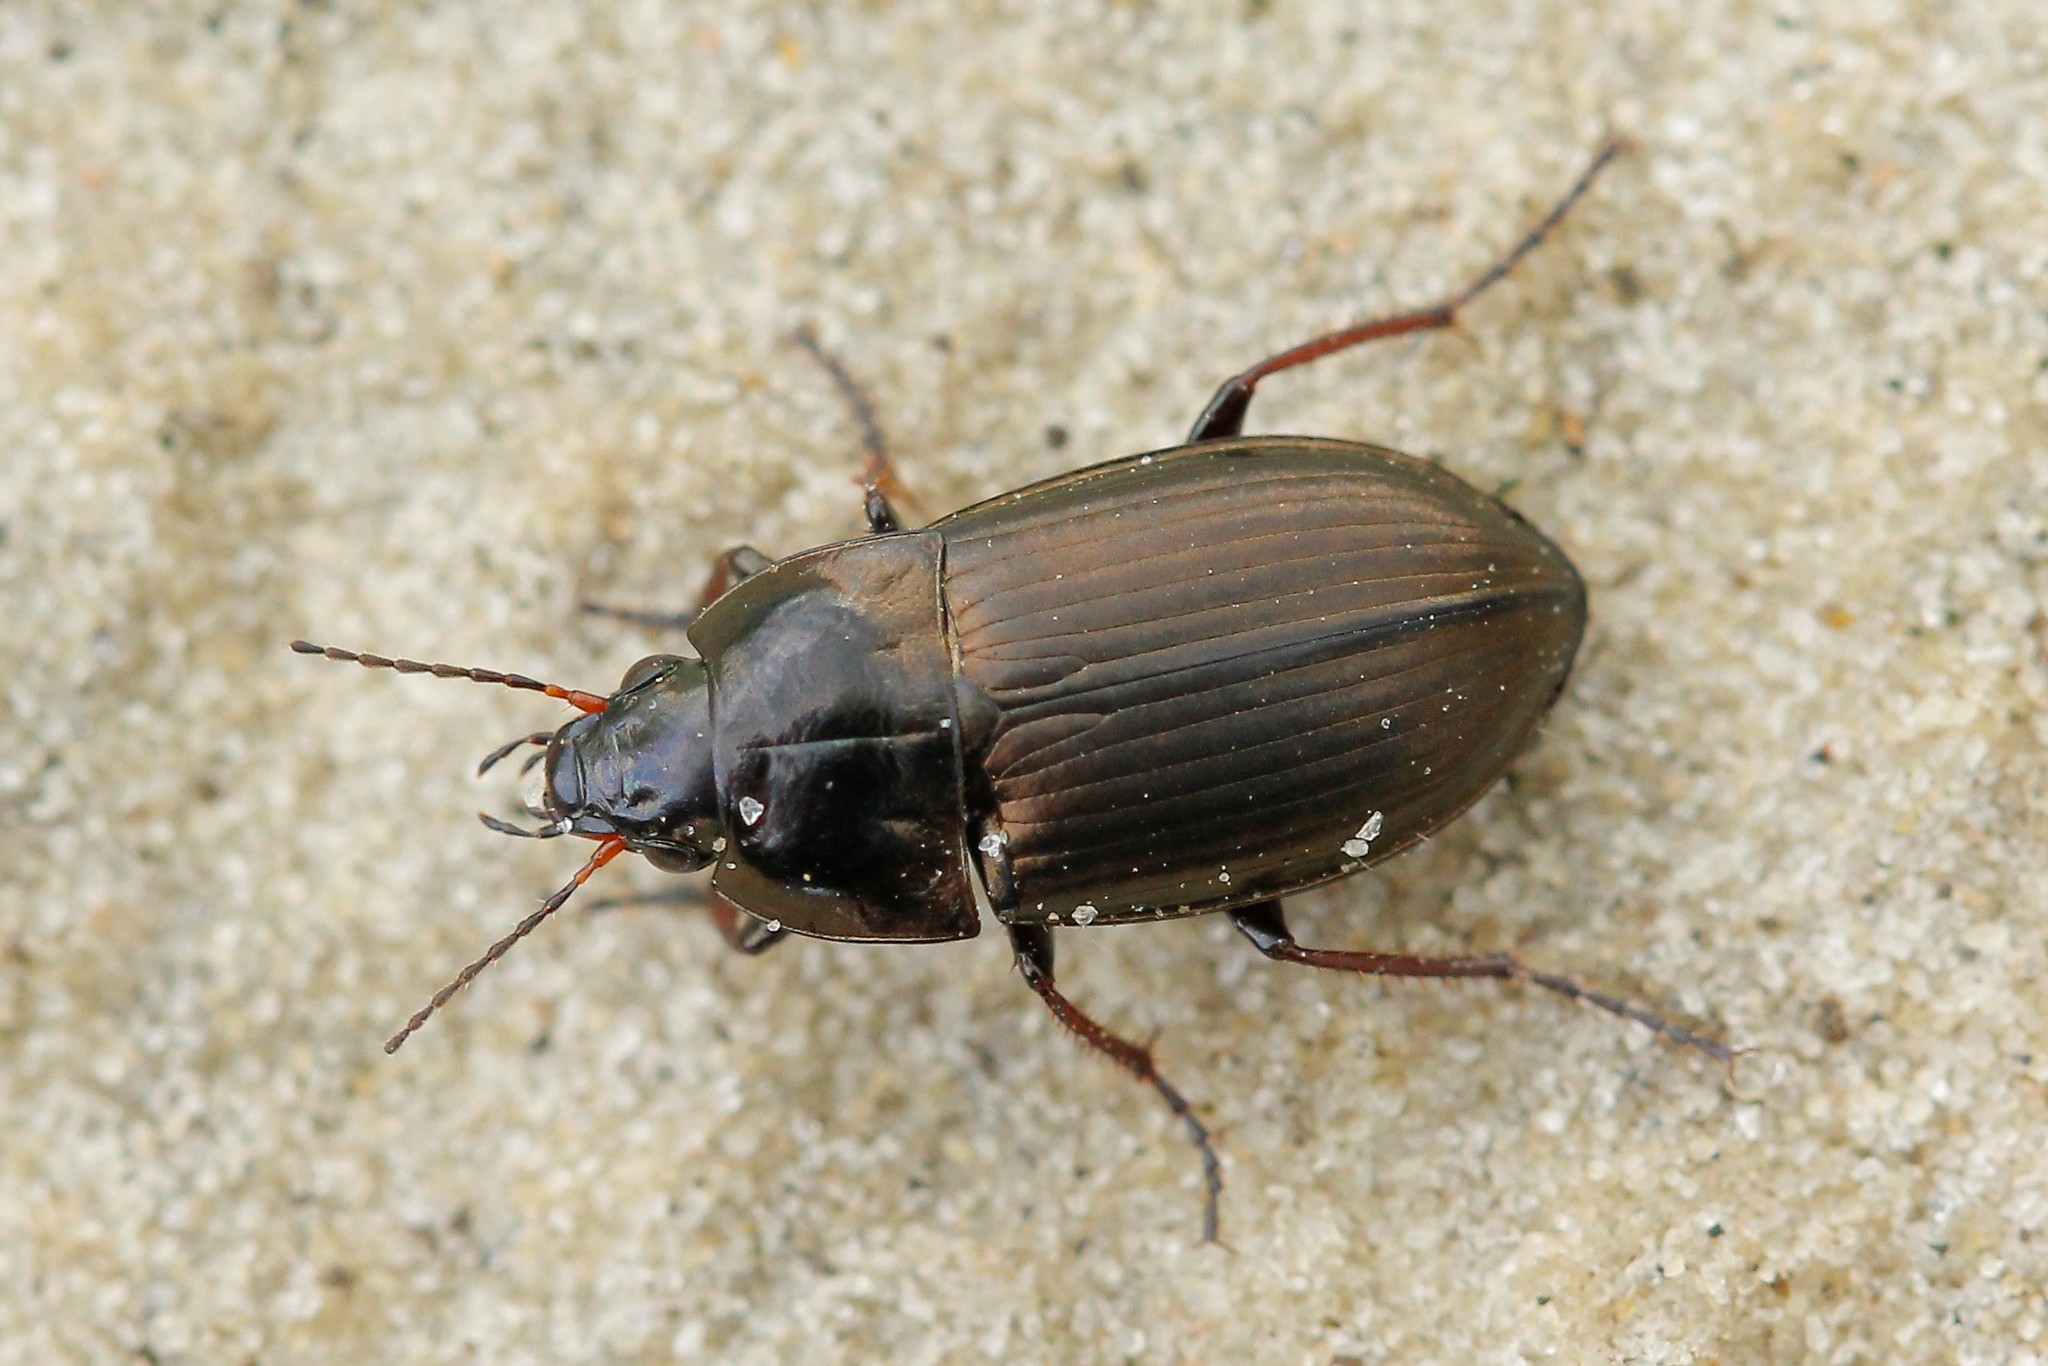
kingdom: Animalia
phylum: Arthropoda
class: Insecta
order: Coleoptera
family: Carabidae
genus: Amara
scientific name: Amara spreta
